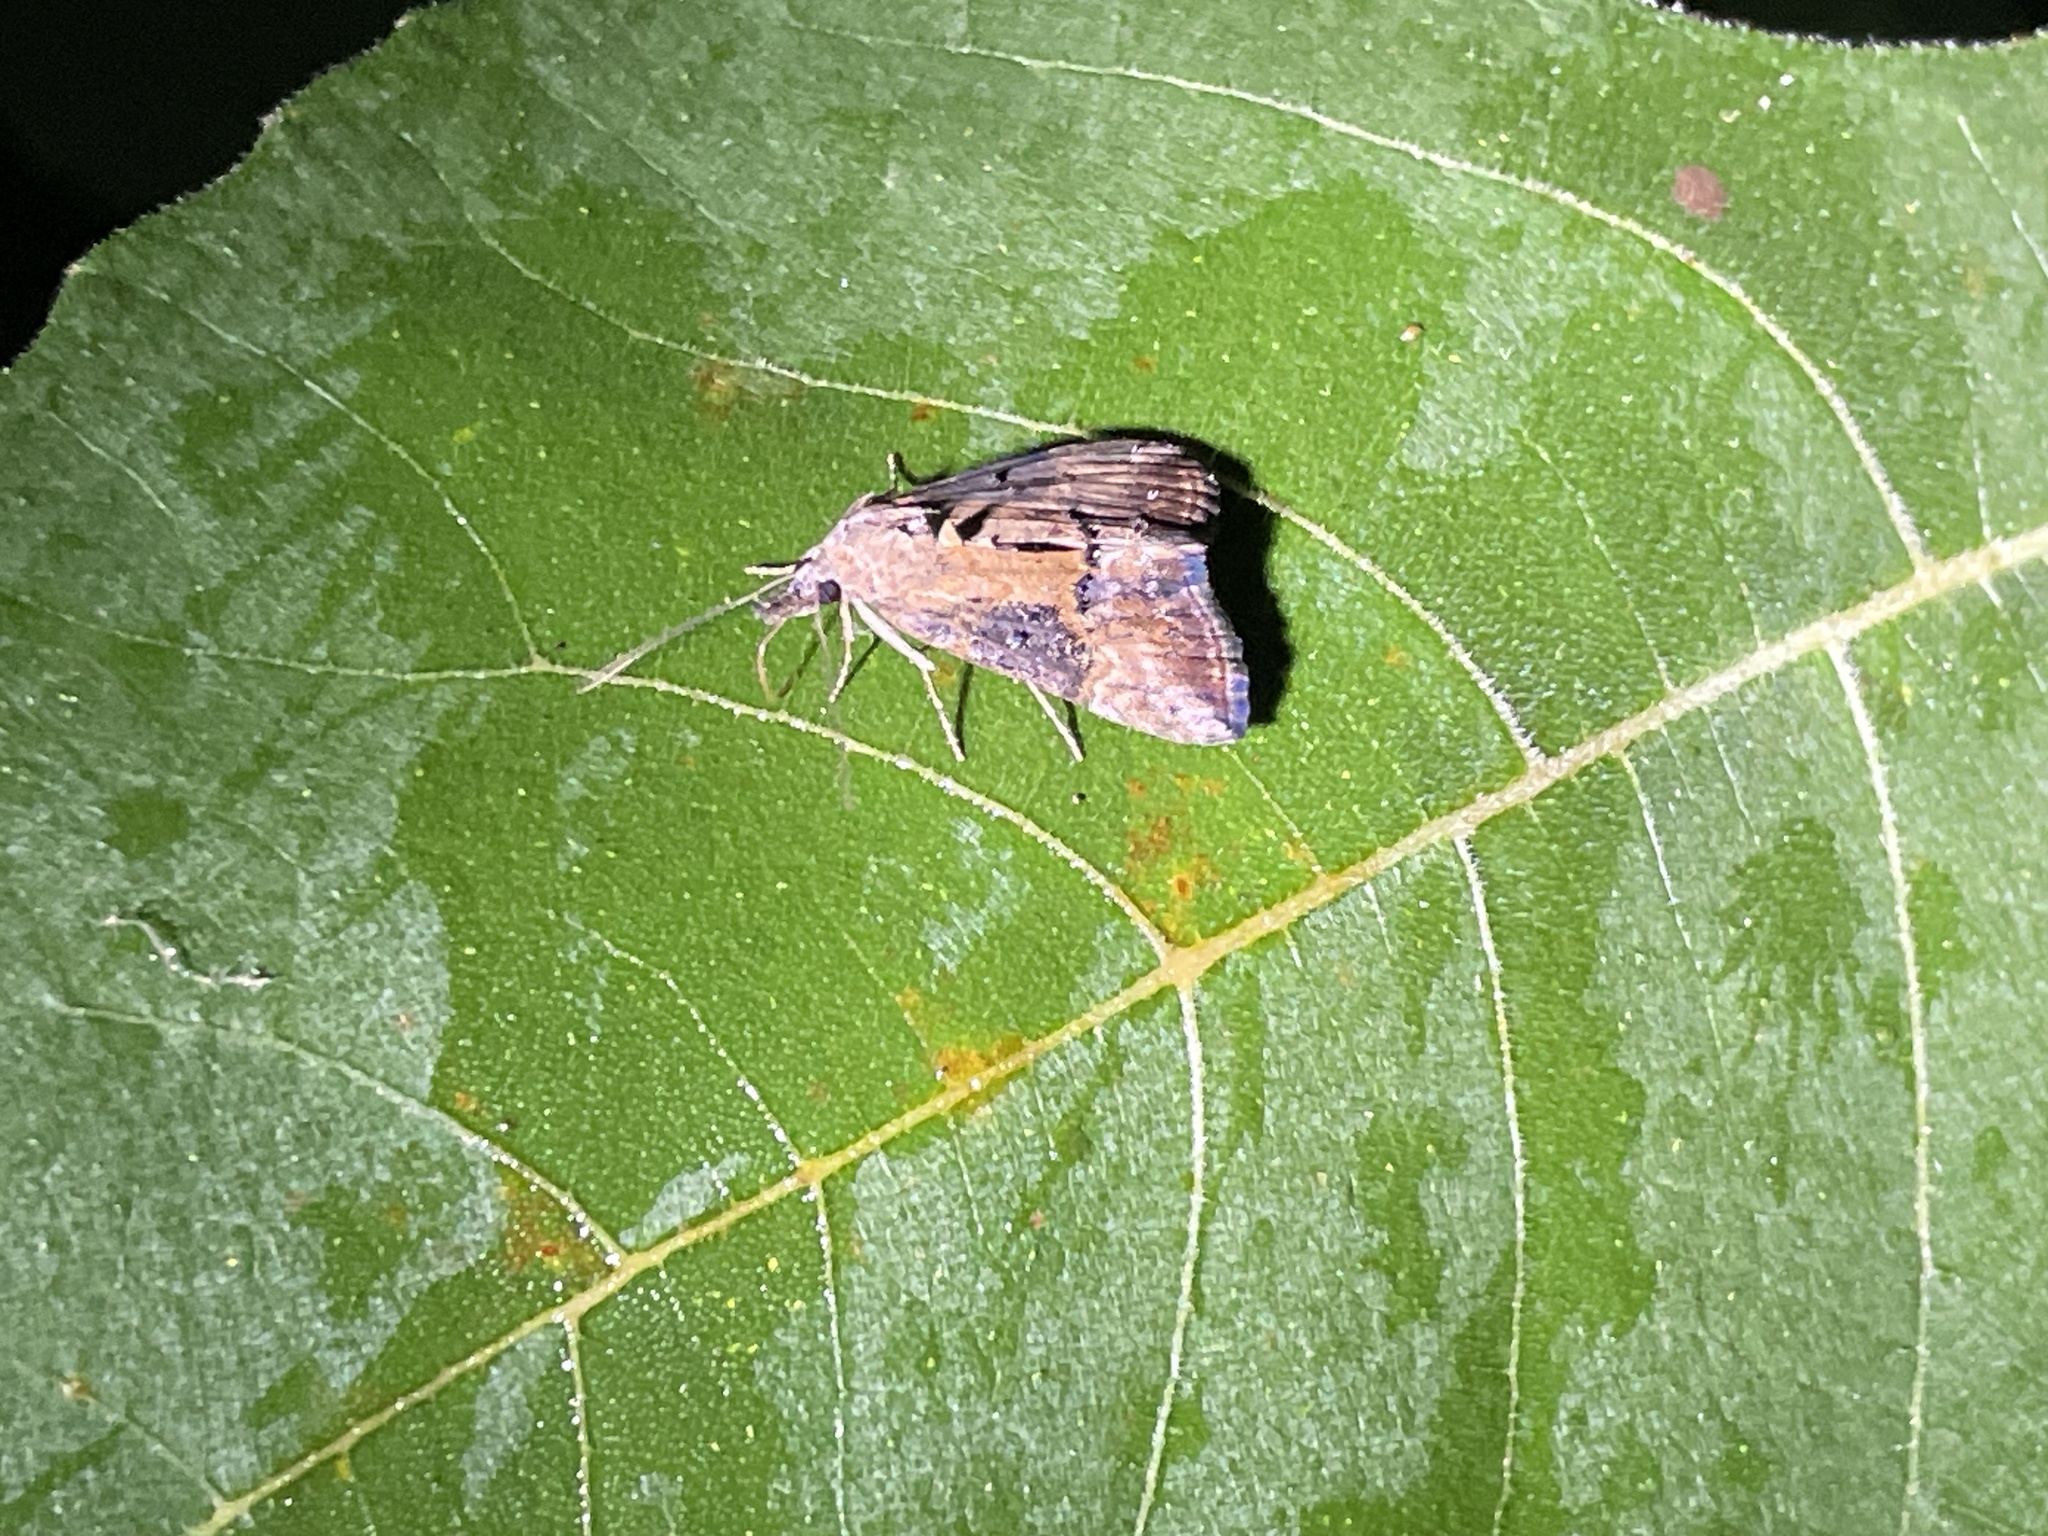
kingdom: Animalia
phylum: Arthropoda
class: Insecta
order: Lepidoptera
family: Erebidae
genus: Hypena
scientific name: Hypena scabra
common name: Green cloverworm
